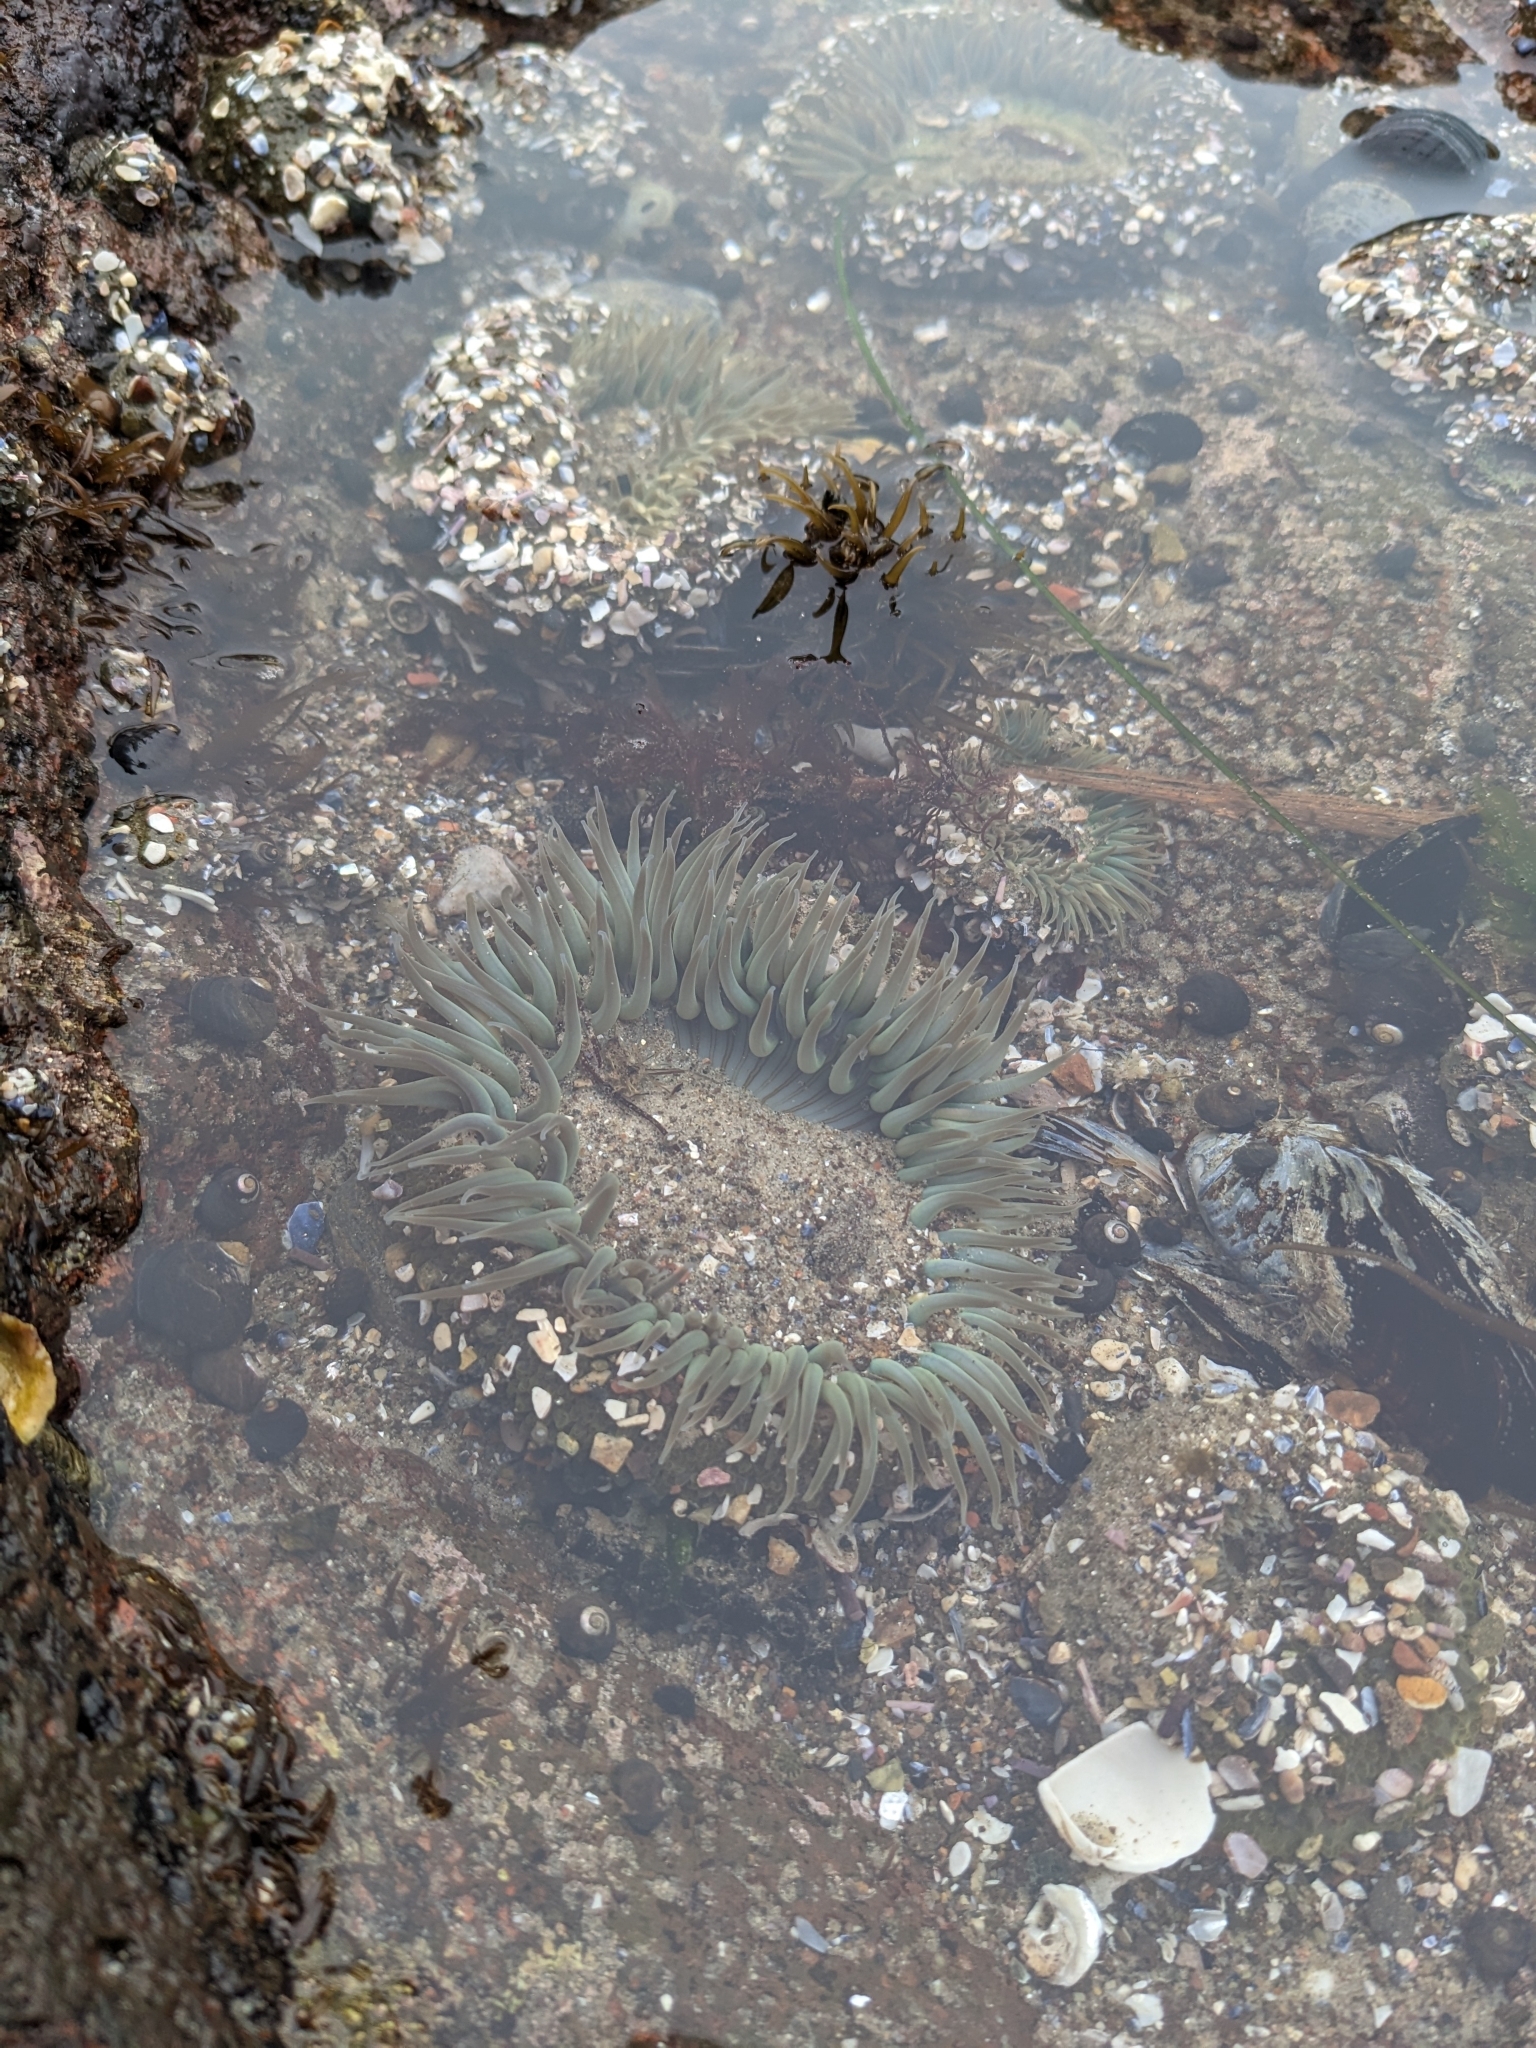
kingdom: Animalia
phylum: Cnidaria
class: Anthozoa
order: Actiniaria
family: Actiniidae
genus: Anthopleura
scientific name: Anthopleura sola
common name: Sun anemone
